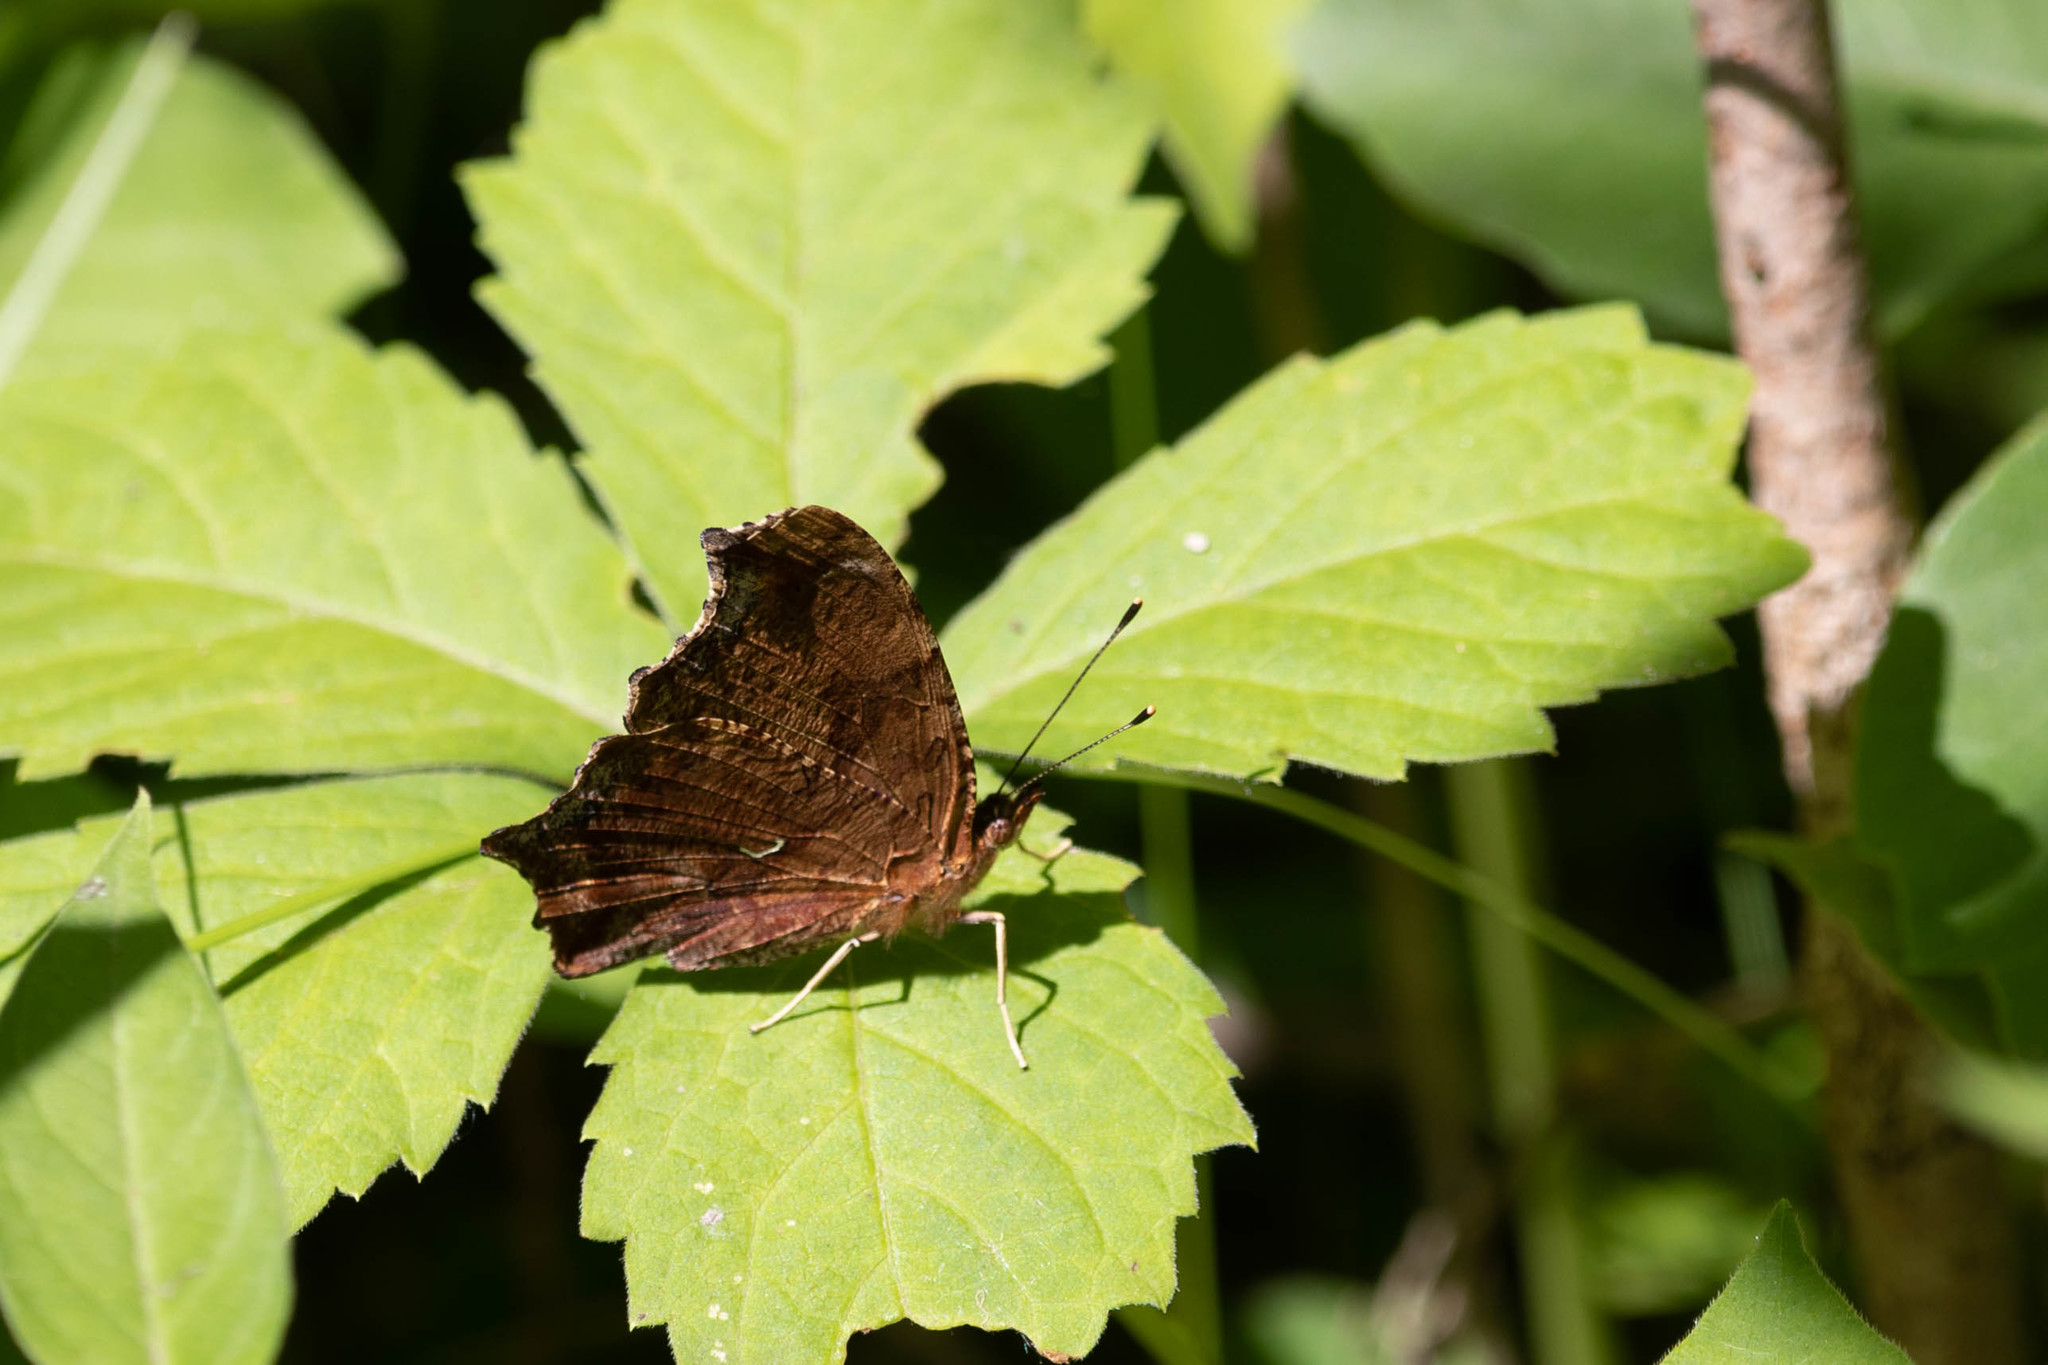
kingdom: Animalia
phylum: Arthropoda
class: Insecta
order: Lepidoptera
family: Nymphalidae
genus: Polygonia
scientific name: Polygonia comma
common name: Eastern comma
